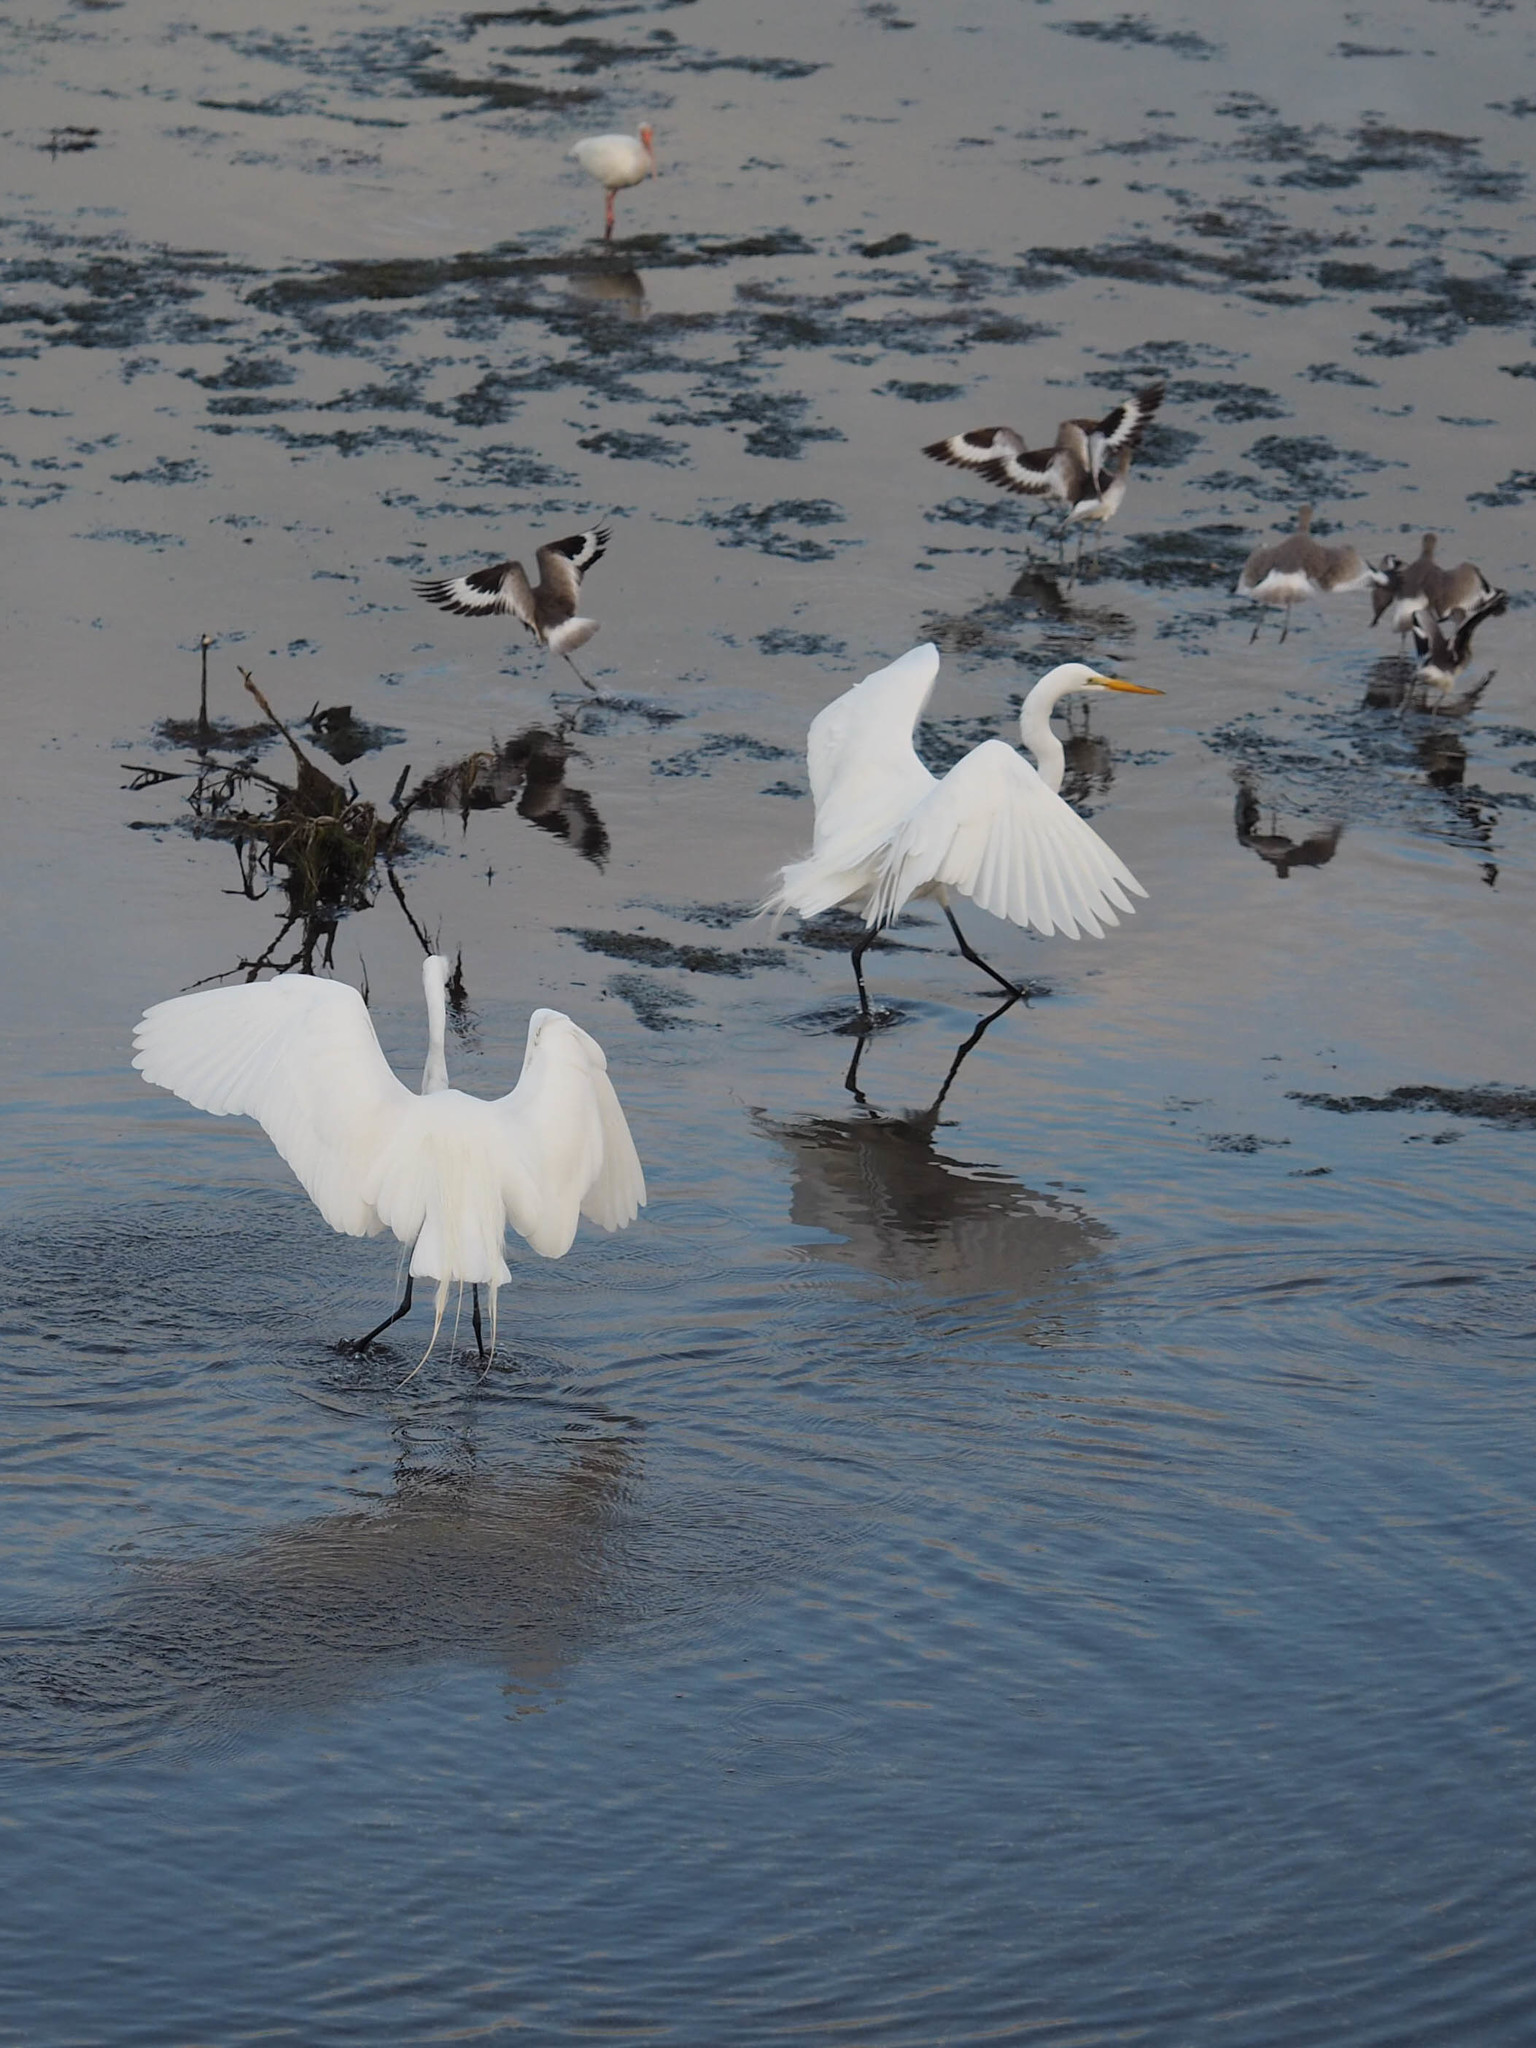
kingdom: Animalia
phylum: Chordata
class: Aves
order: Pelecaniformes
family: Ardeidae
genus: Ardea
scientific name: Ardea alba
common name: Great egret
